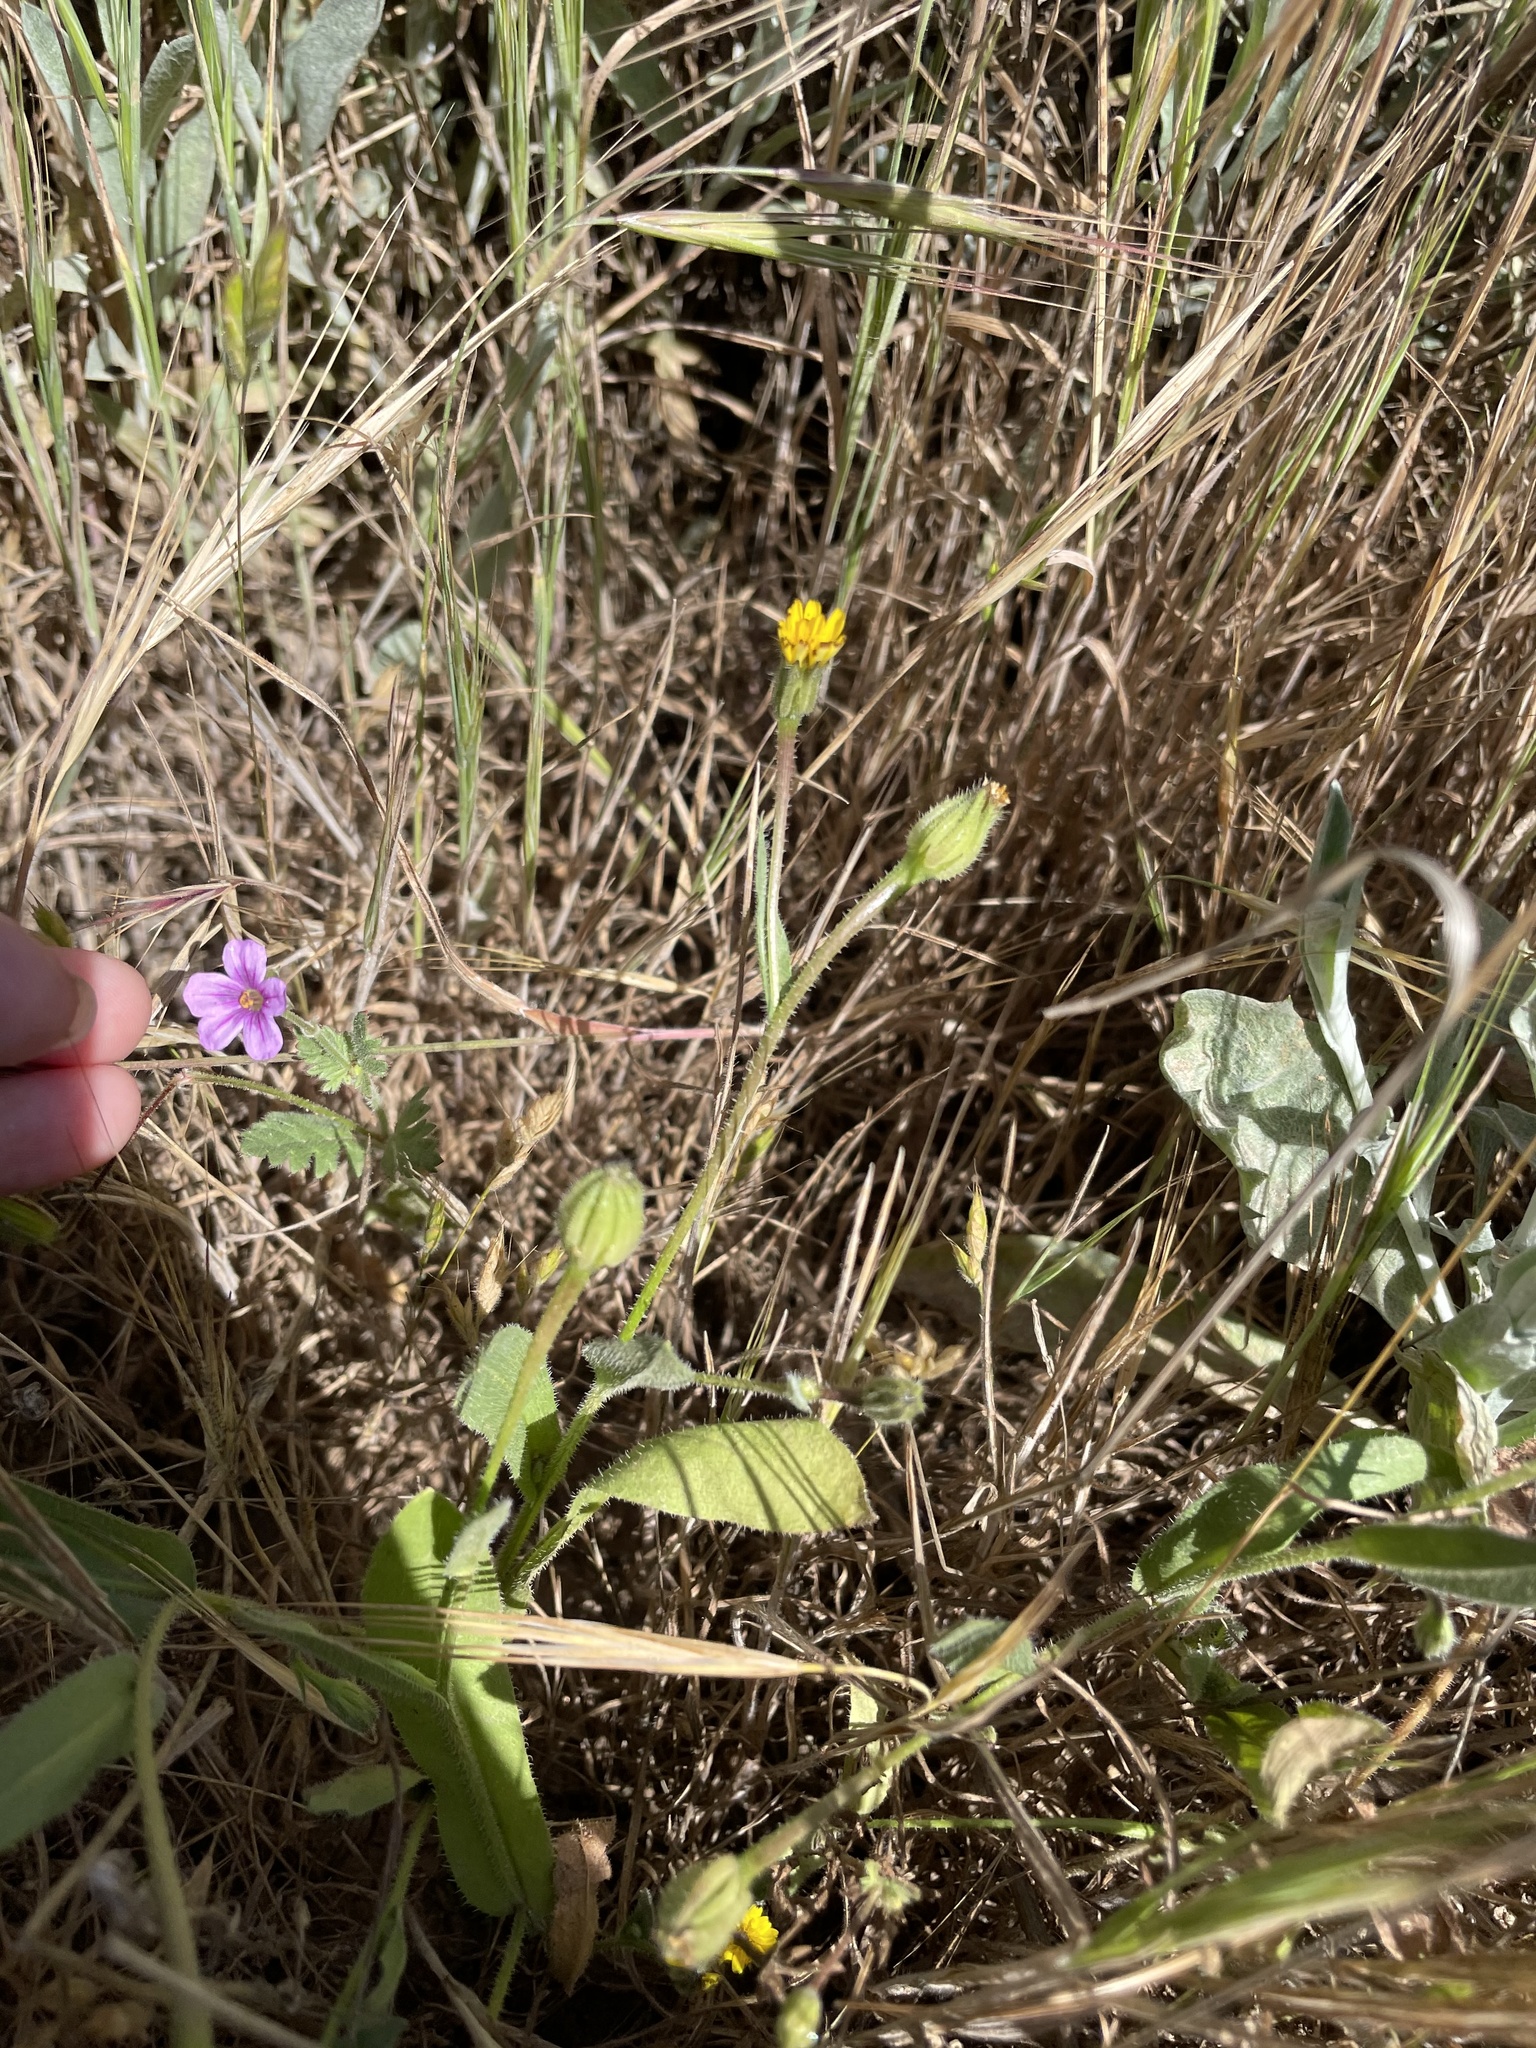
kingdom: Plantae
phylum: Tracheophyta
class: Magnoliopsida
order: Asterales
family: Asteraceae
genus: Hedypnois
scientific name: Hedypnois rhagadioloides
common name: Cretan weed
